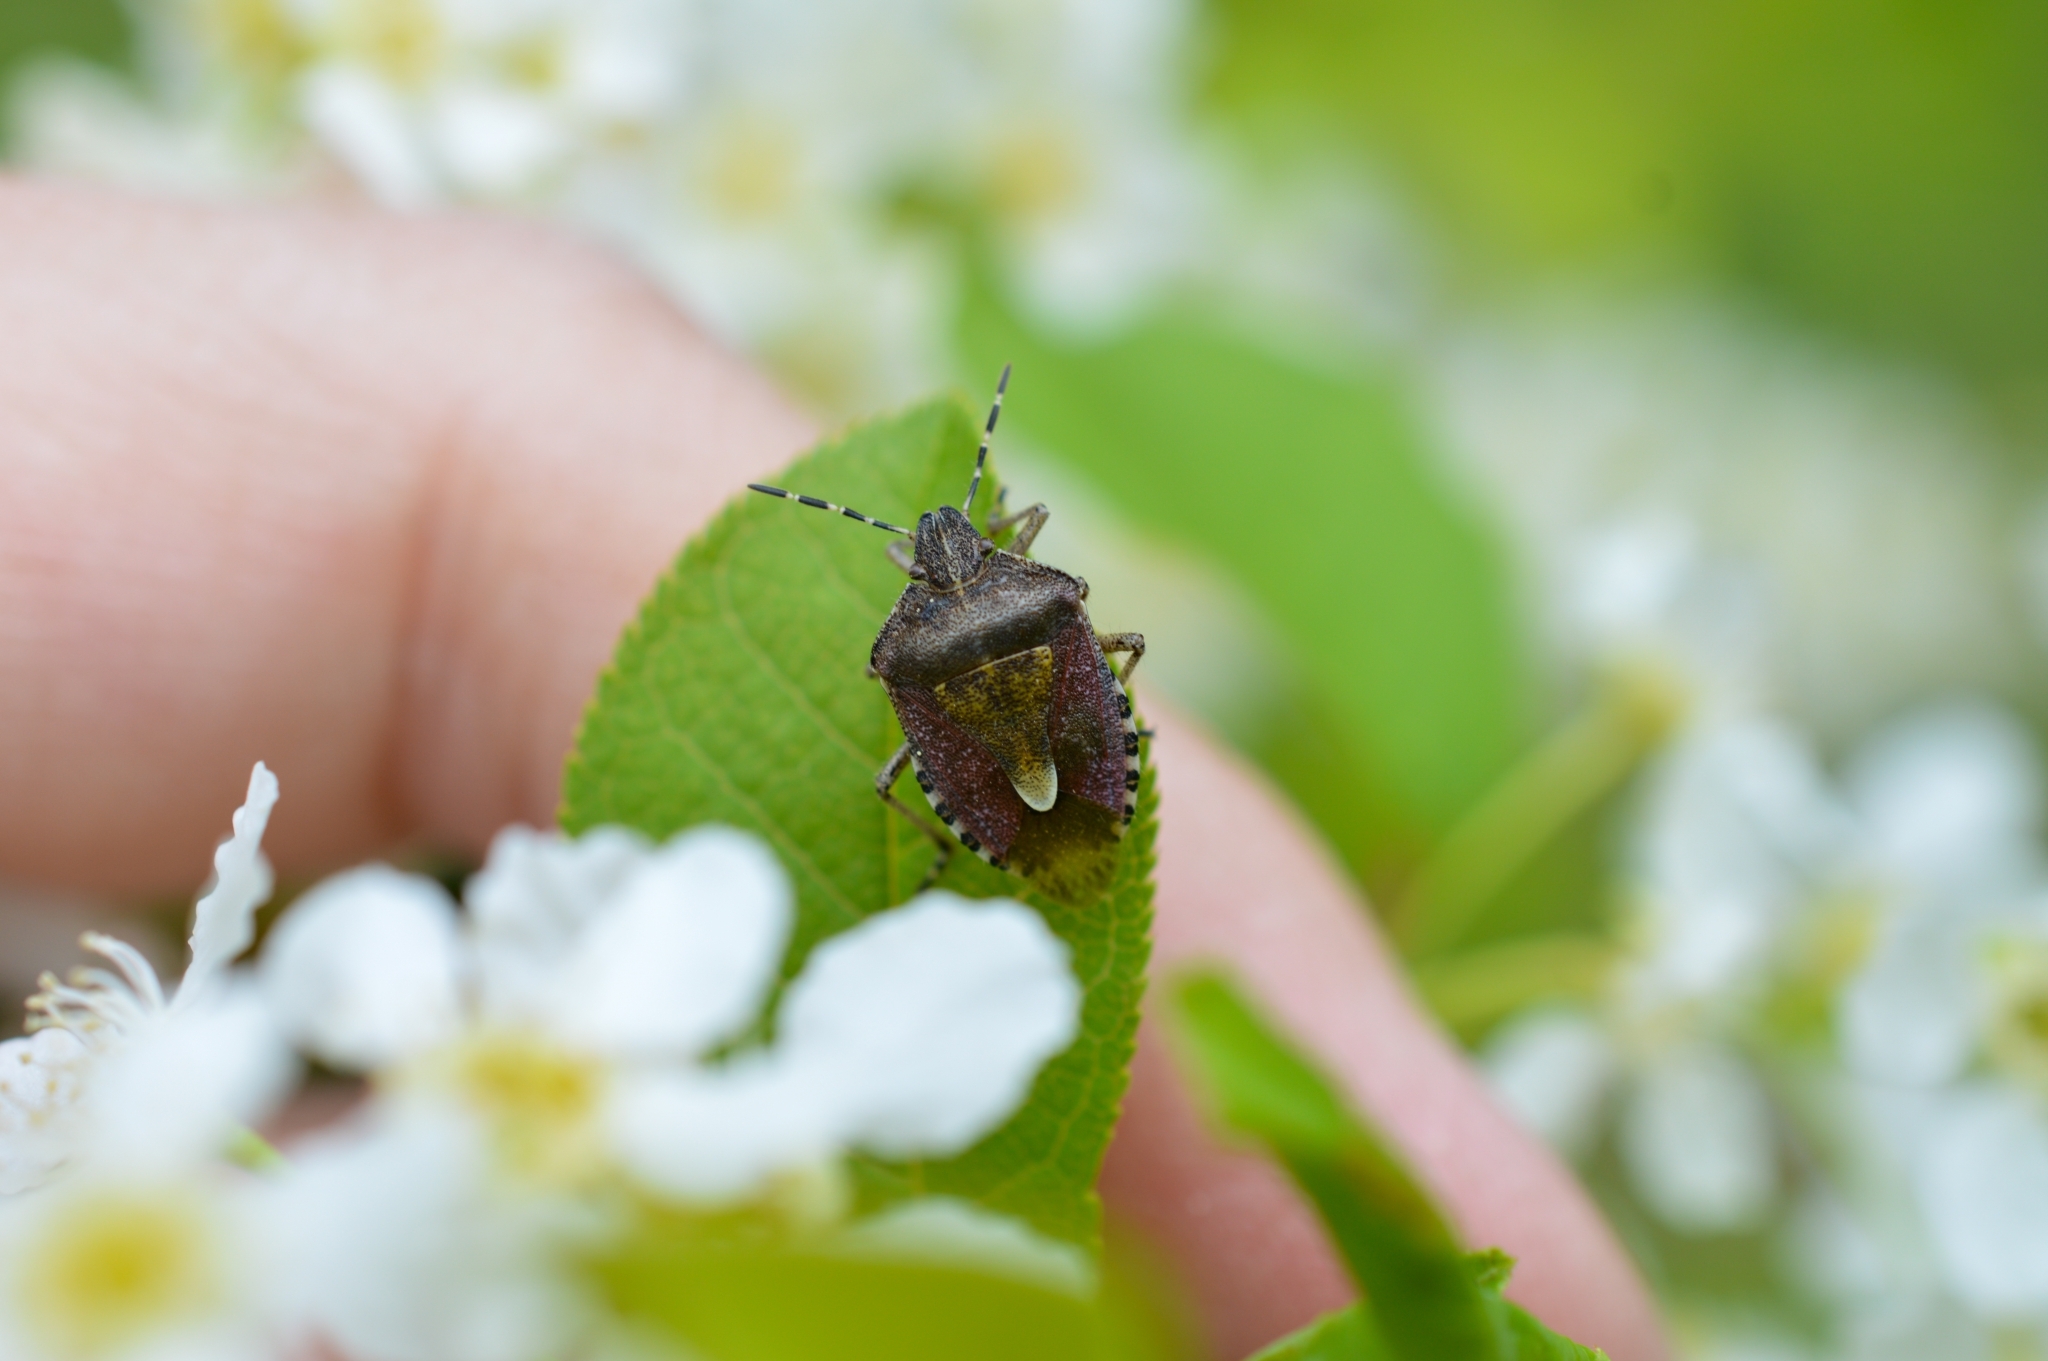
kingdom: Animalia
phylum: Arthropoda
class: Insecta
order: Hemiptera
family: Pentatomidae
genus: Dolycoris
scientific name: Dolycoris baccarum
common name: Sloe bug
